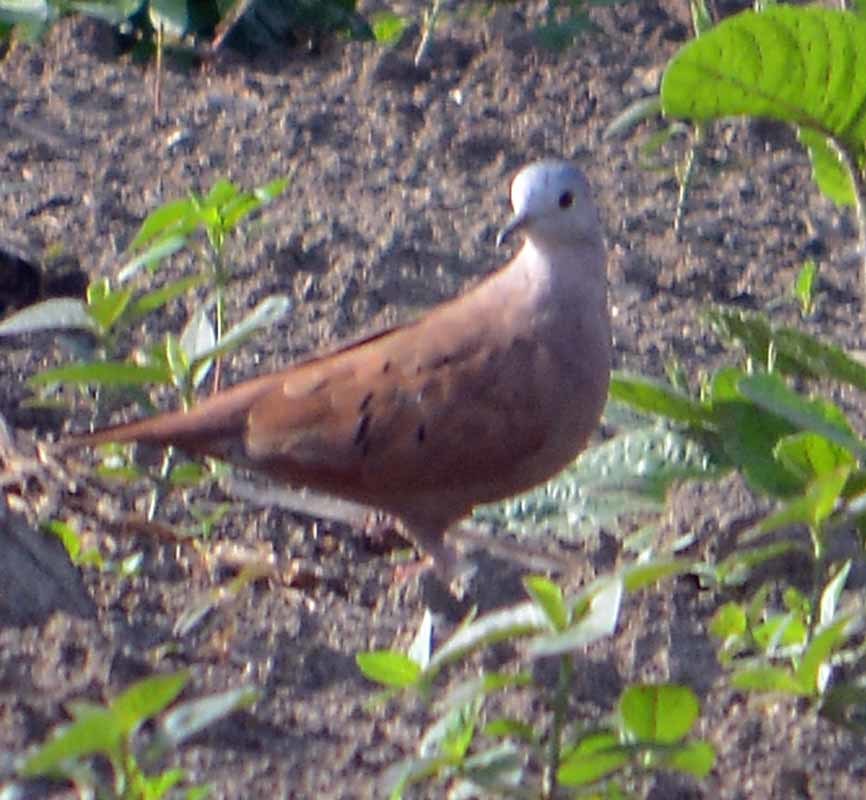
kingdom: Animalia
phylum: Chordata
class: Aves
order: Columbiformes
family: Columbidae
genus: Columbina
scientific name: Columbina talpacoti
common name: Ruddy ground dove
